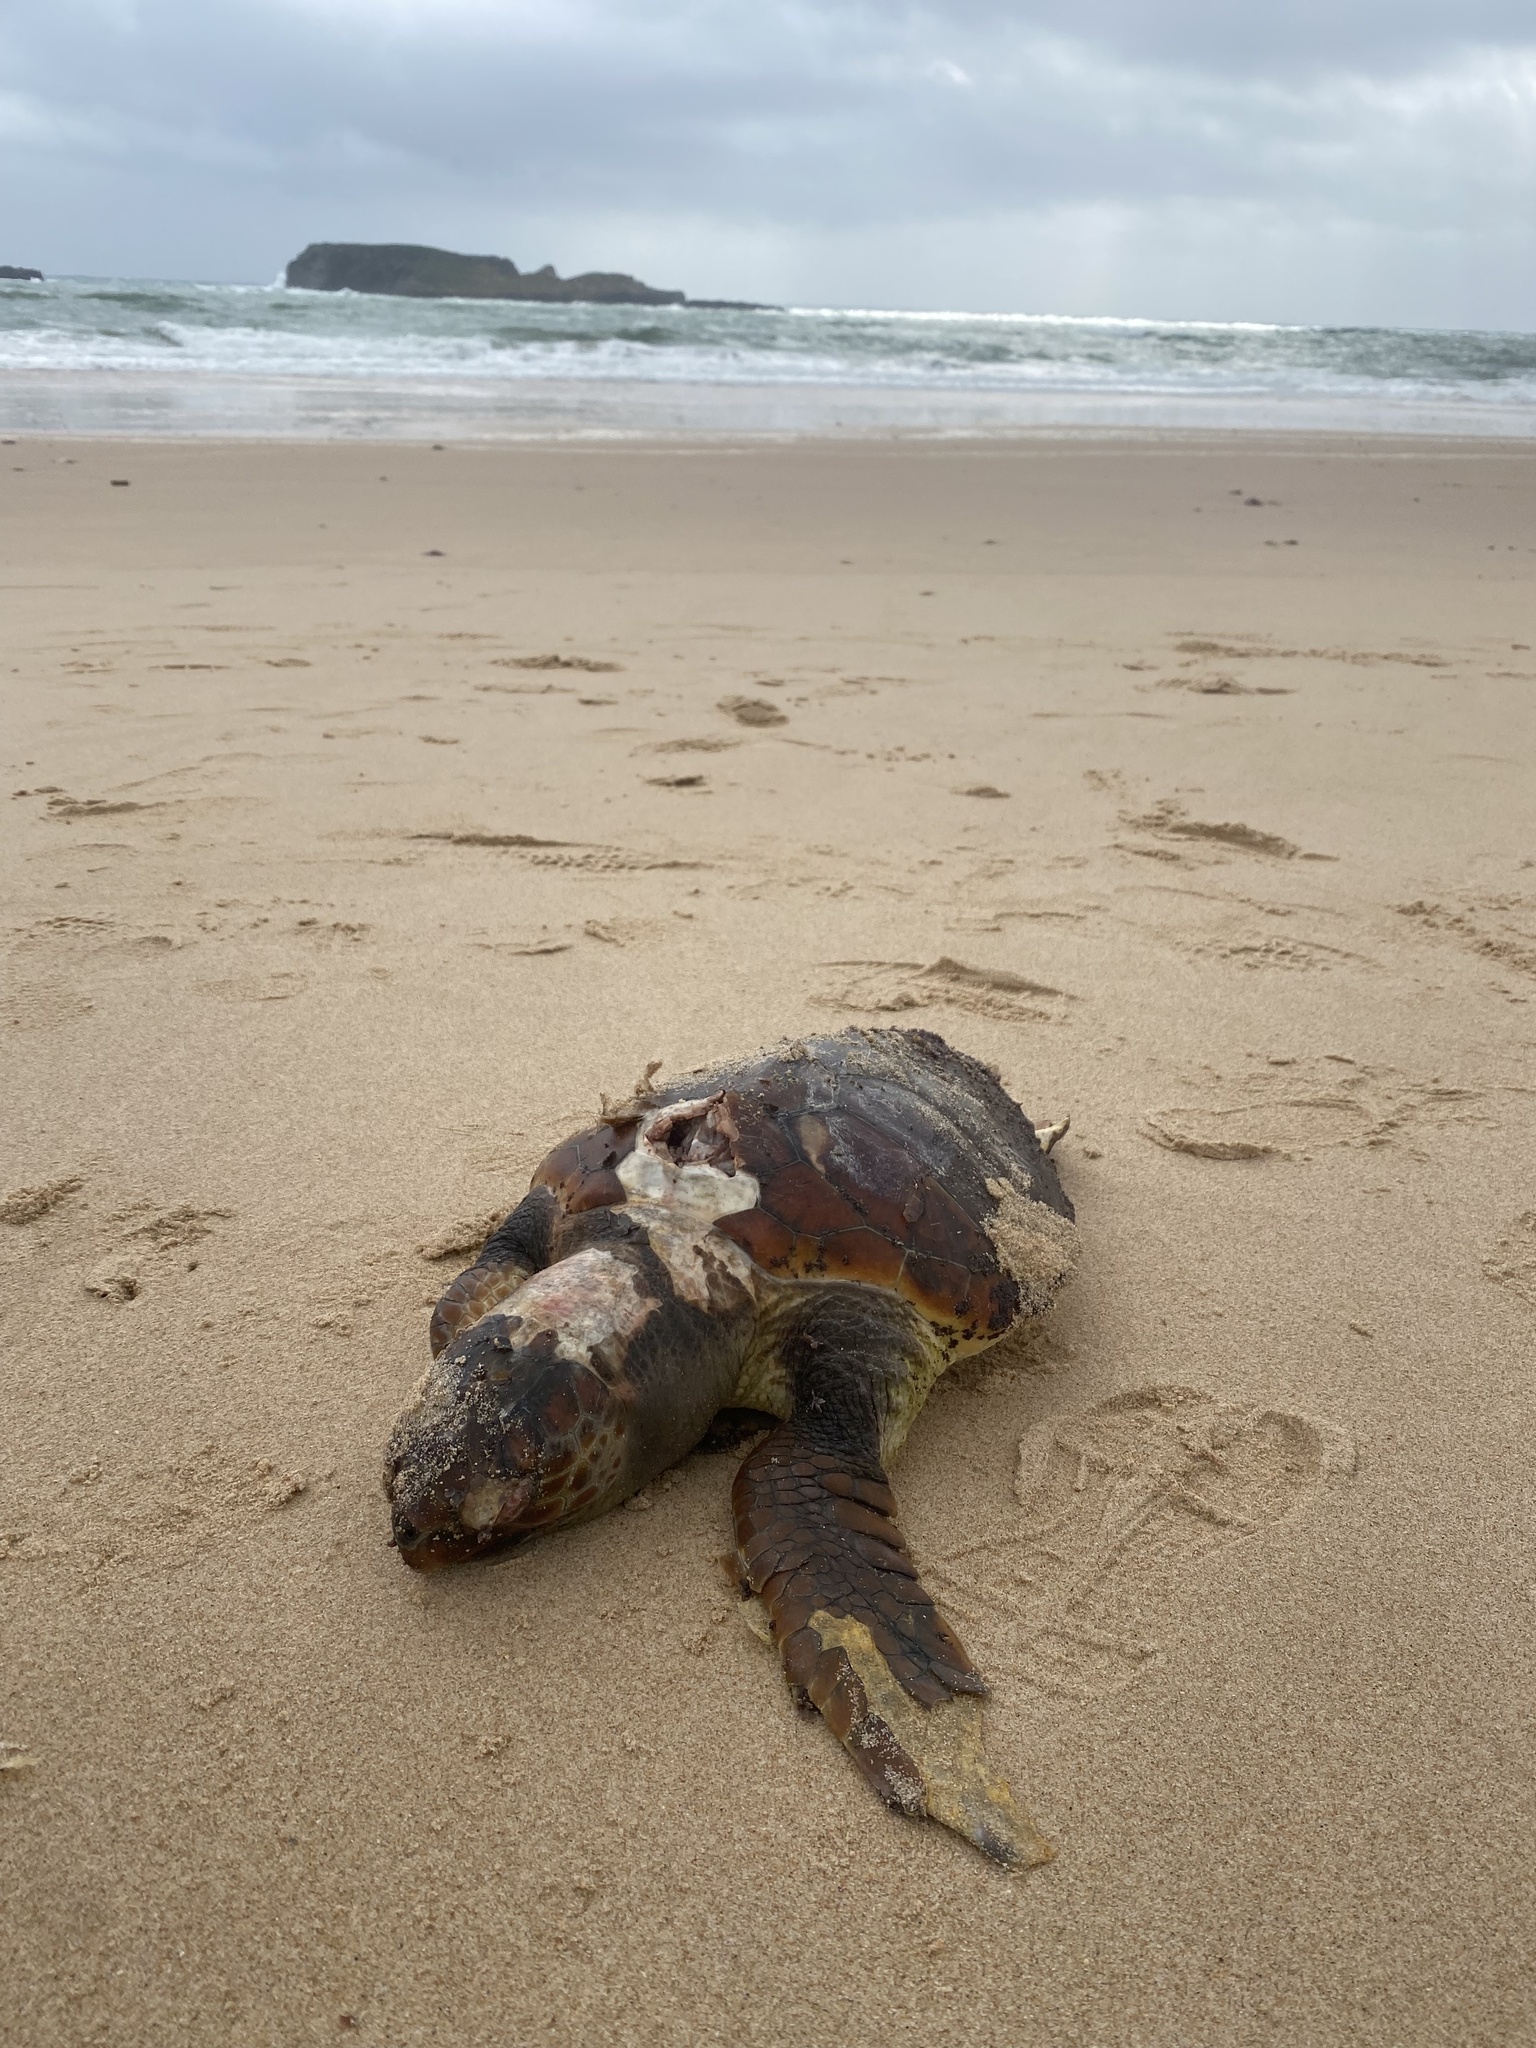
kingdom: Animalia
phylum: Chordata
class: Testudines
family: Cheloniidae
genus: Caretta
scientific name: Caretta caretta
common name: Loggerhead sea turtle
